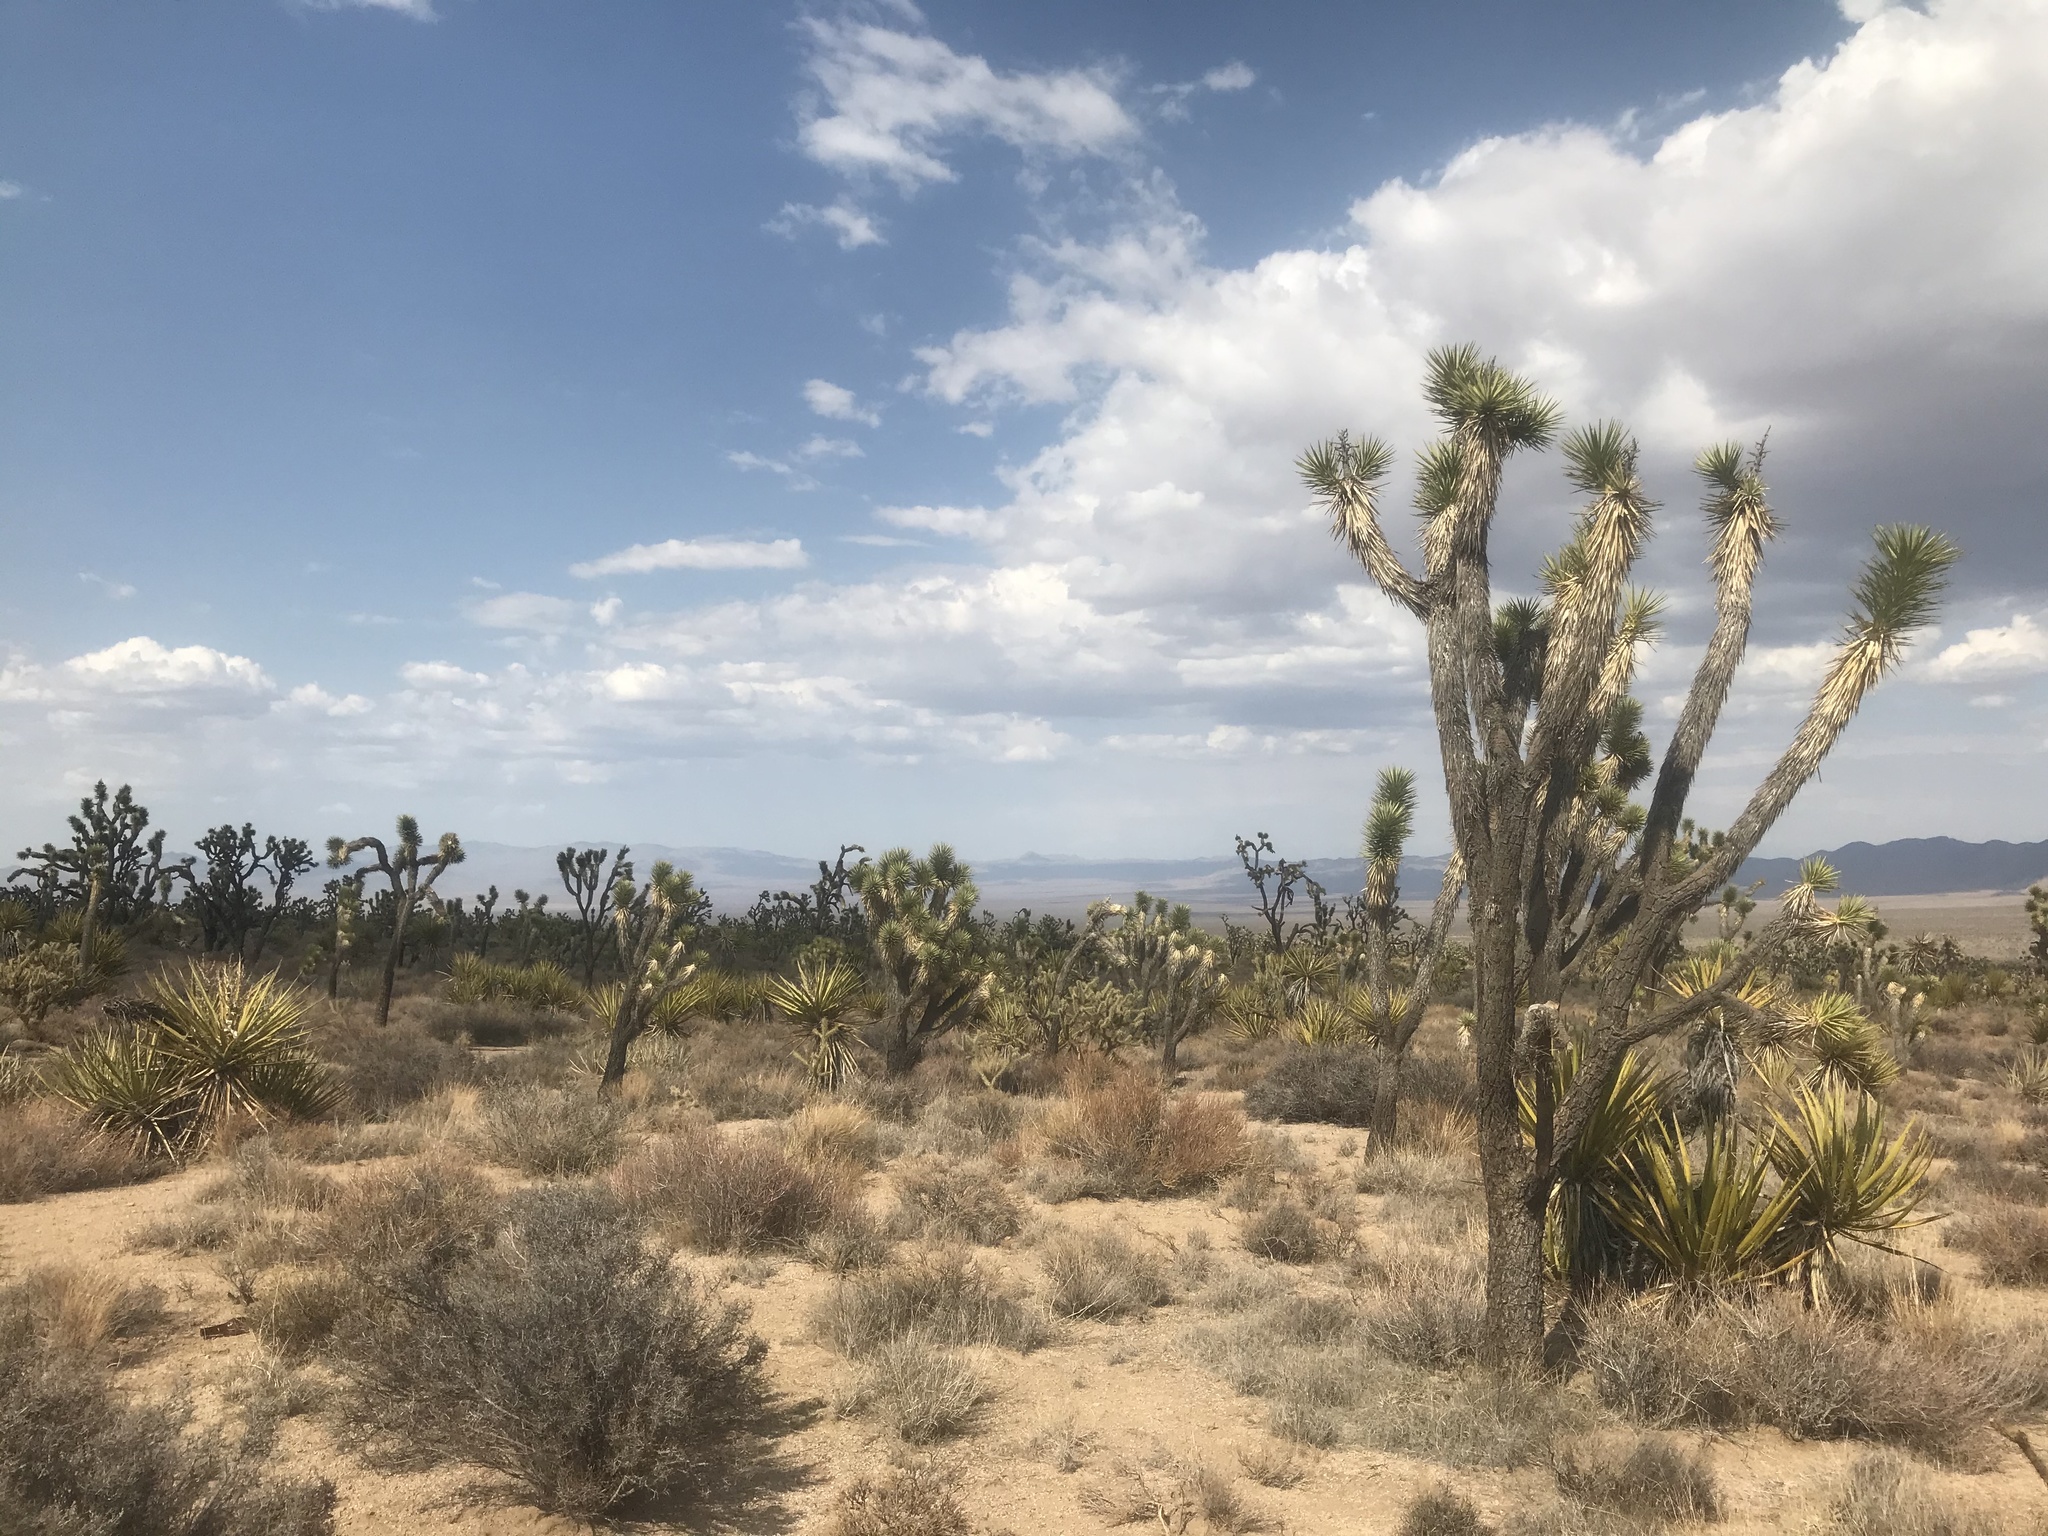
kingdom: Plantae
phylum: Tracheophyta
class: Liliopsida
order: Asparagales
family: Asparagaceae
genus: Yucca
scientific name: Yucca brevifolia
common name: Joshua tree
